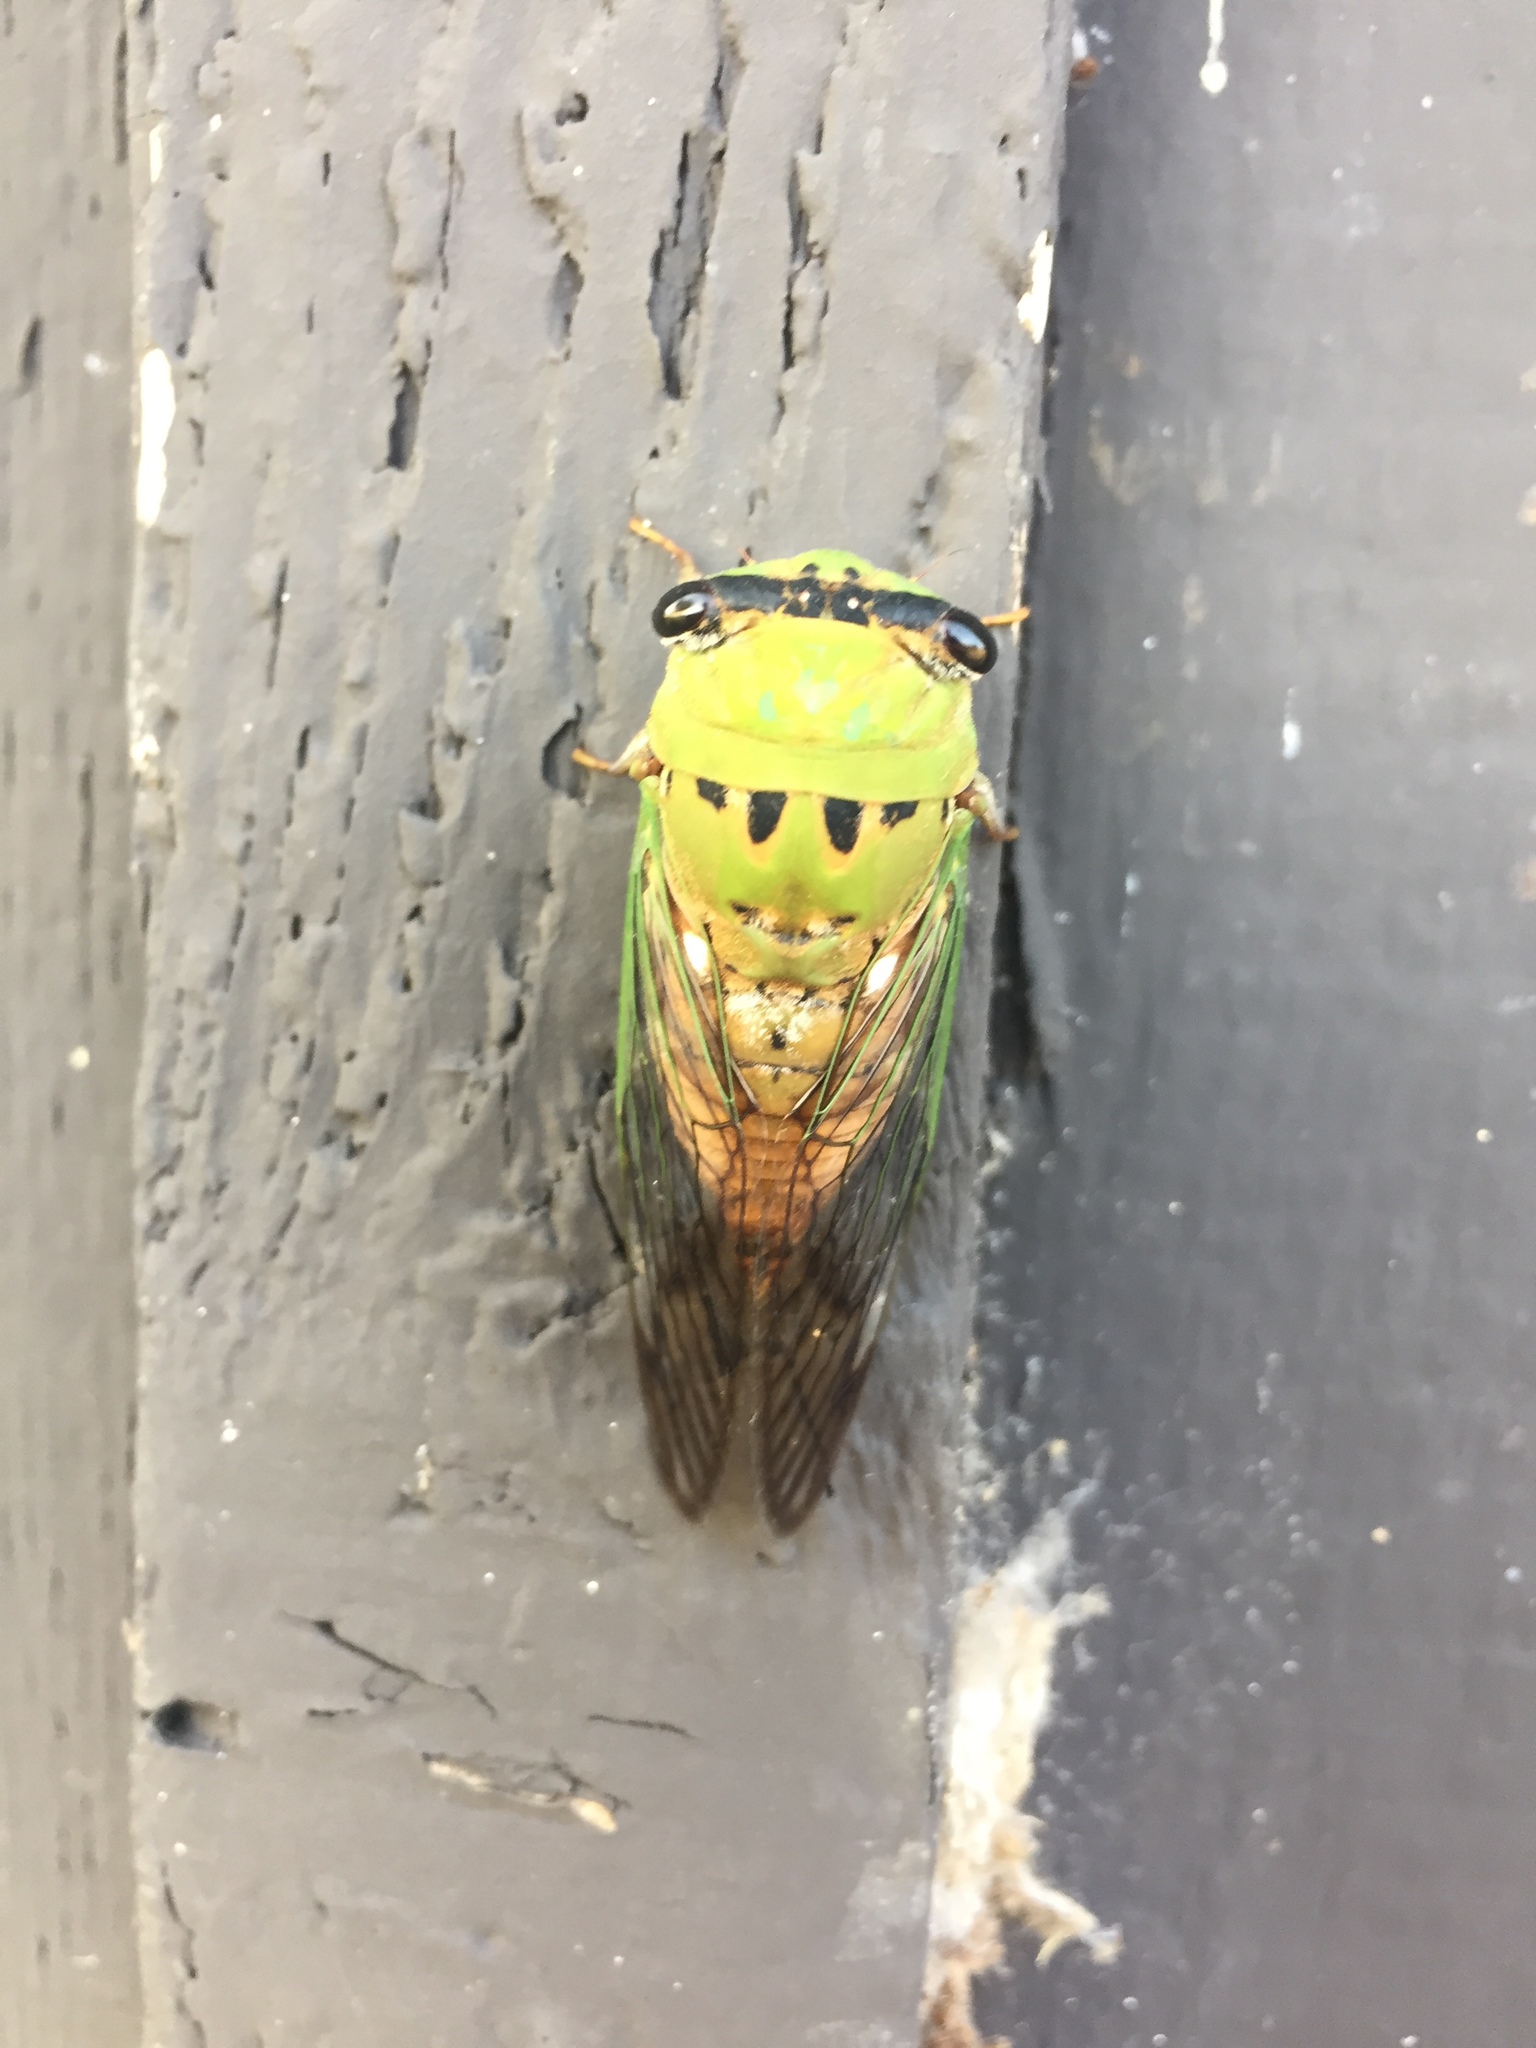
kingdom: Animalia
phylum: Arthropoda
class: Insecta
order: Hemiptera
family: Cicadidae
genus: Neotibicen
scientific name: Neotibicen superbus
